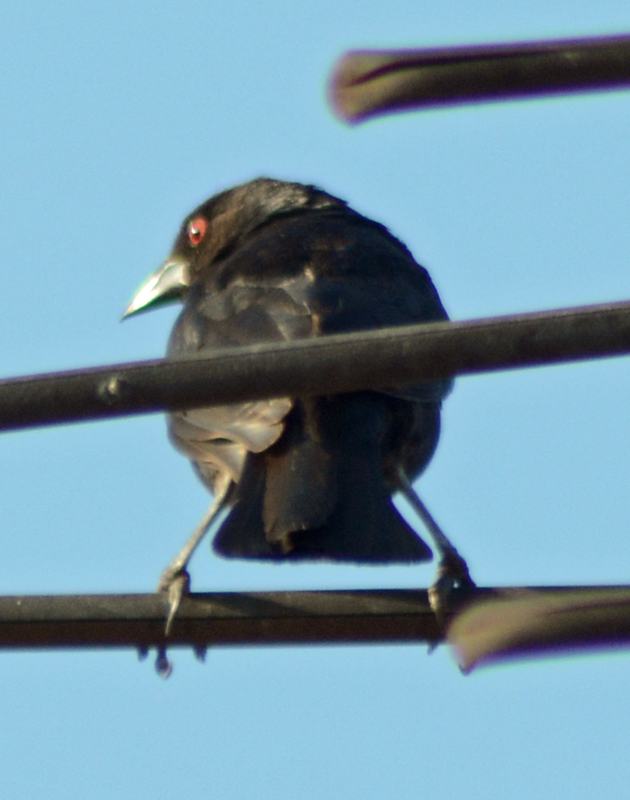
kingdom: Animalia
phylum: Chordata
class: Aves
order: Passeriformes
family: Icteridae
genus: Molothrus
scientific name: Molothrus aeneus
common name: Bronzed cowbird
